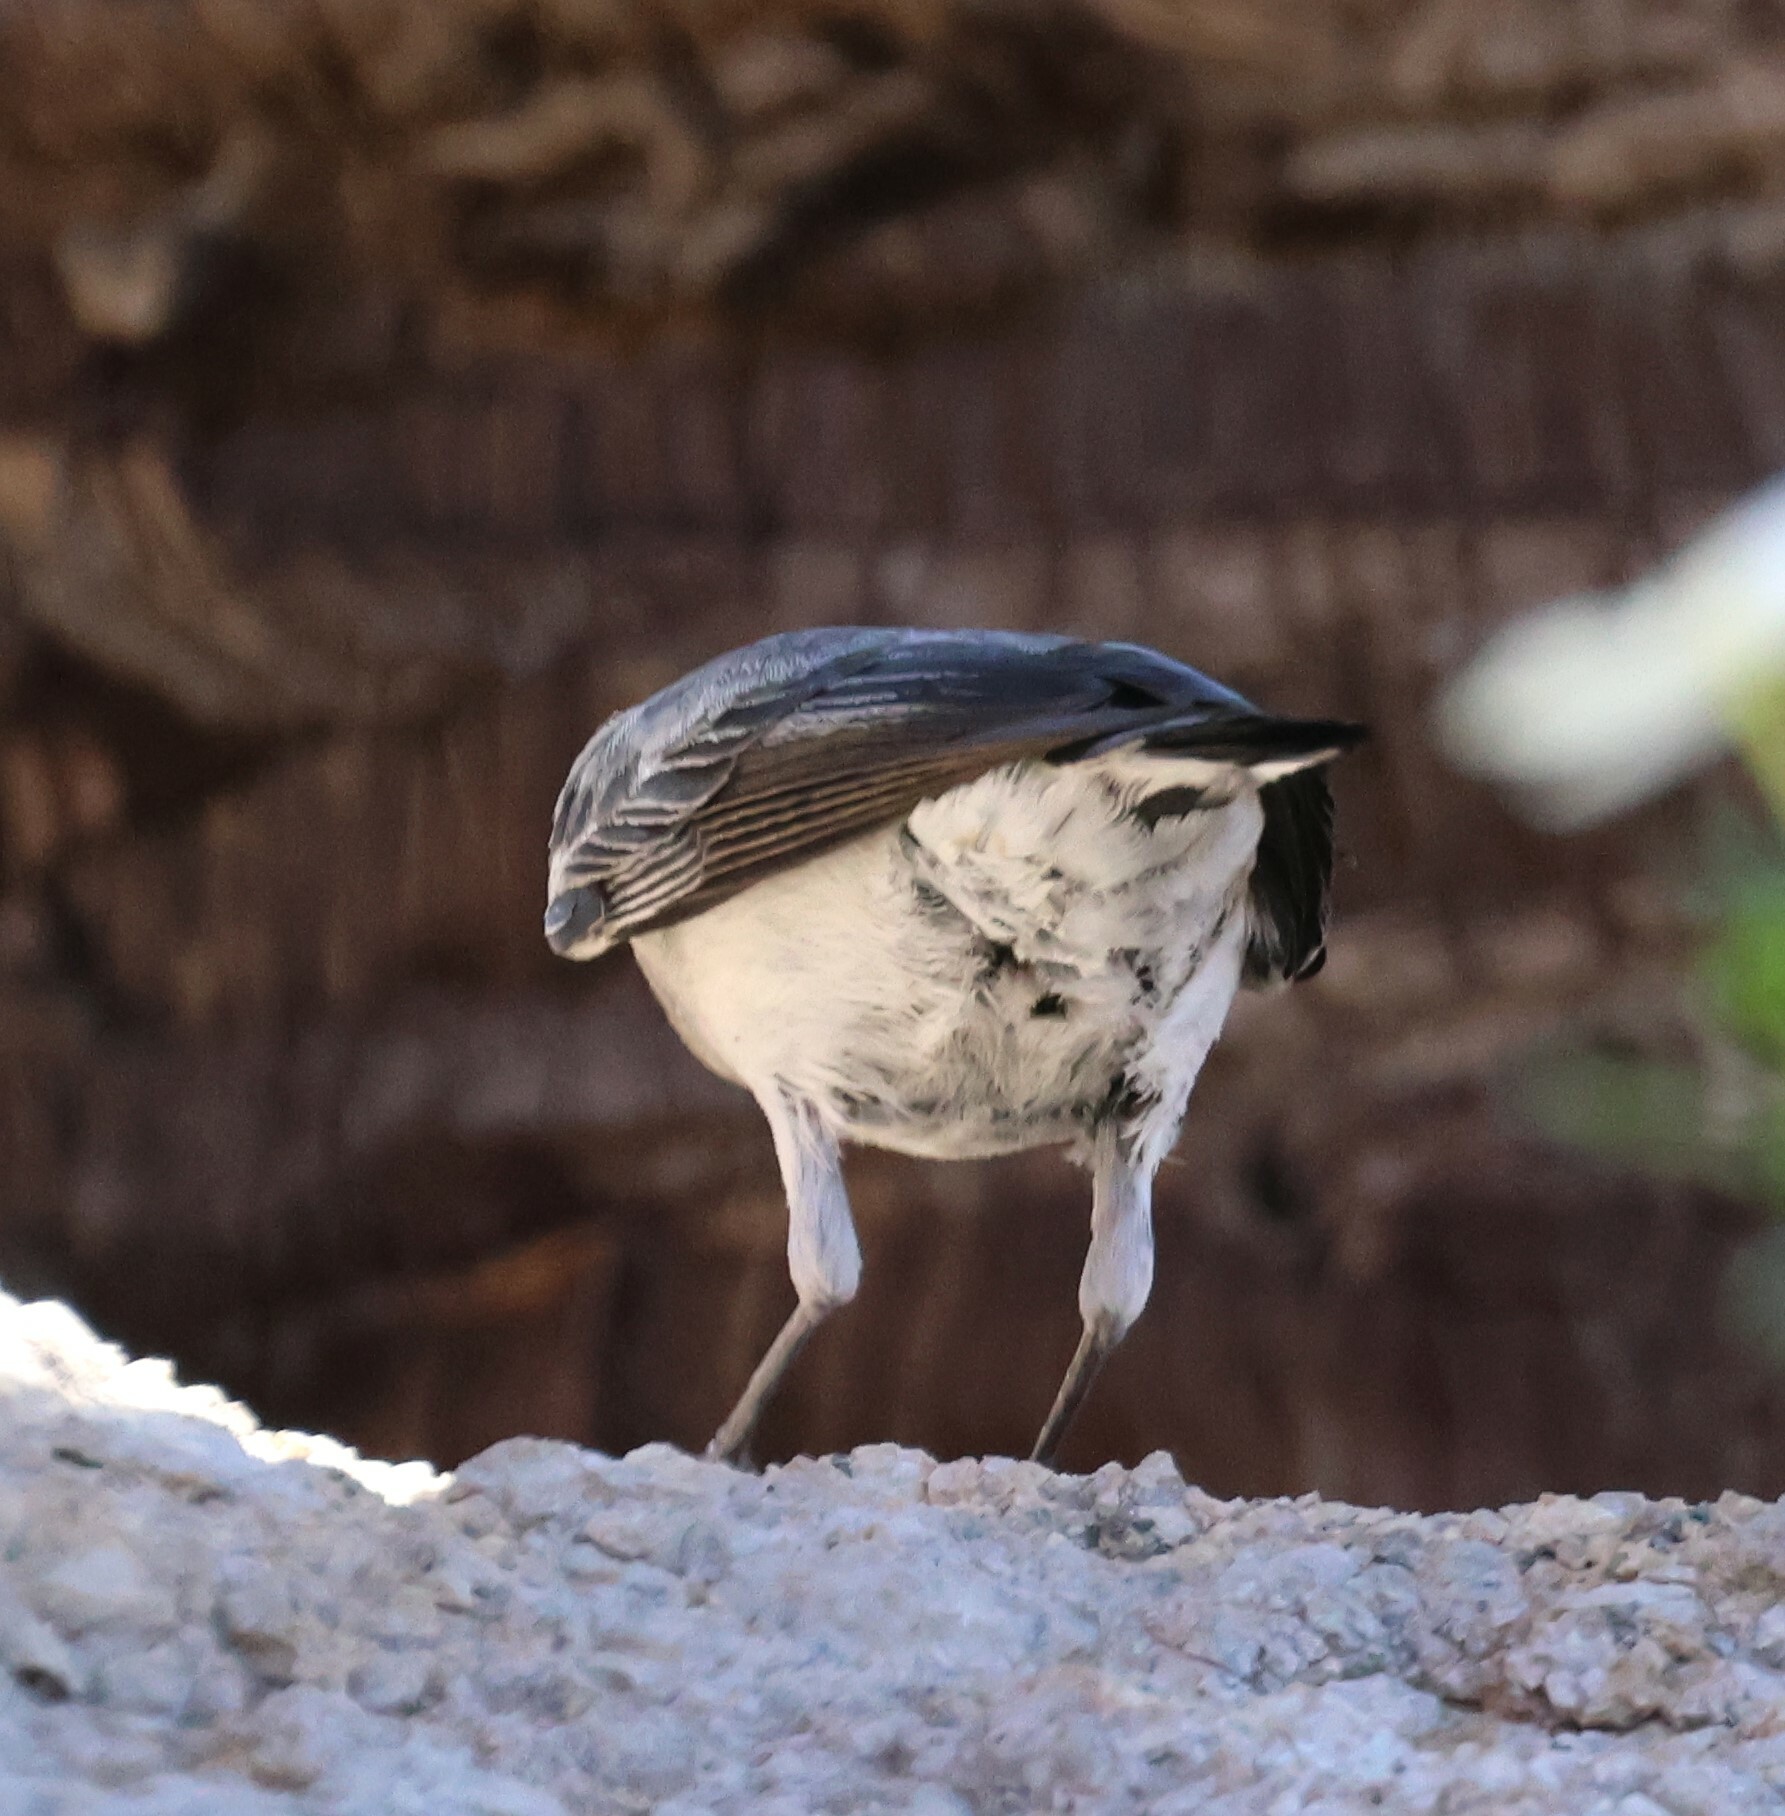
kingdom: Animalia
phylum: Chordata
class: Aves
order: Passeriformes
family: Muscicapidae
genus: Oenanthe
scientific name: Oenanthe monticola
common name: Mountain wheatear
